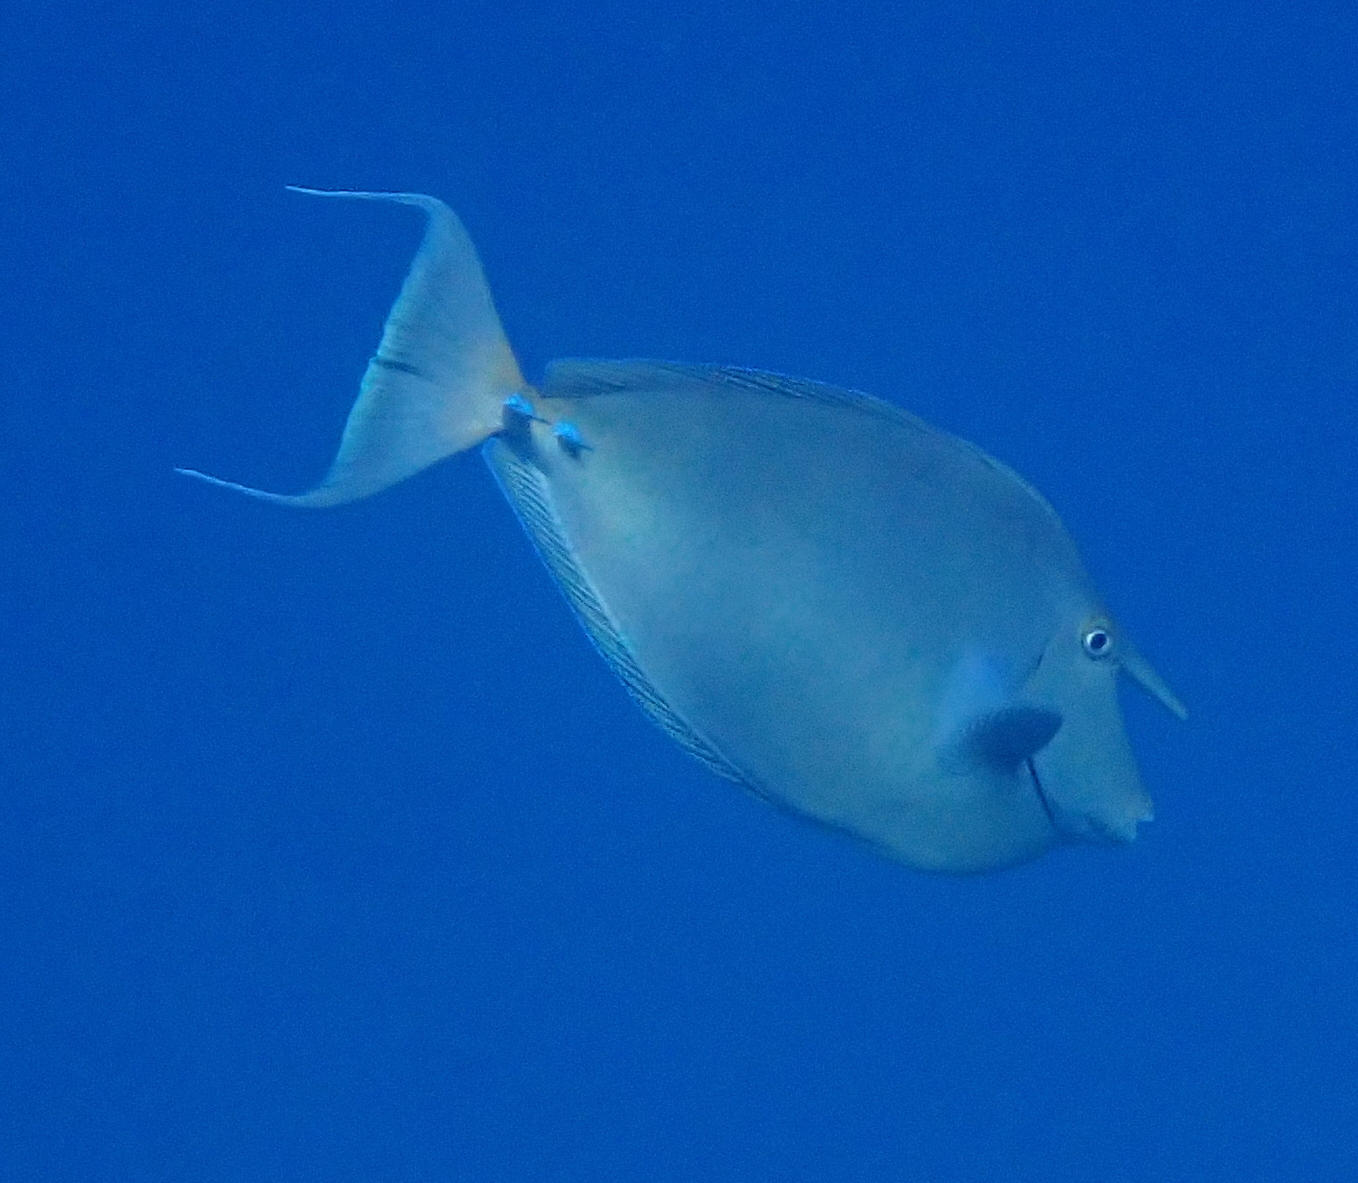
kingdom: Animalia
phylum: Chordata
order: Perciformes
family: Acanthuridae
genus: Naso
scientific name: Naso unicornis
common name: Bluespine unicornfish
